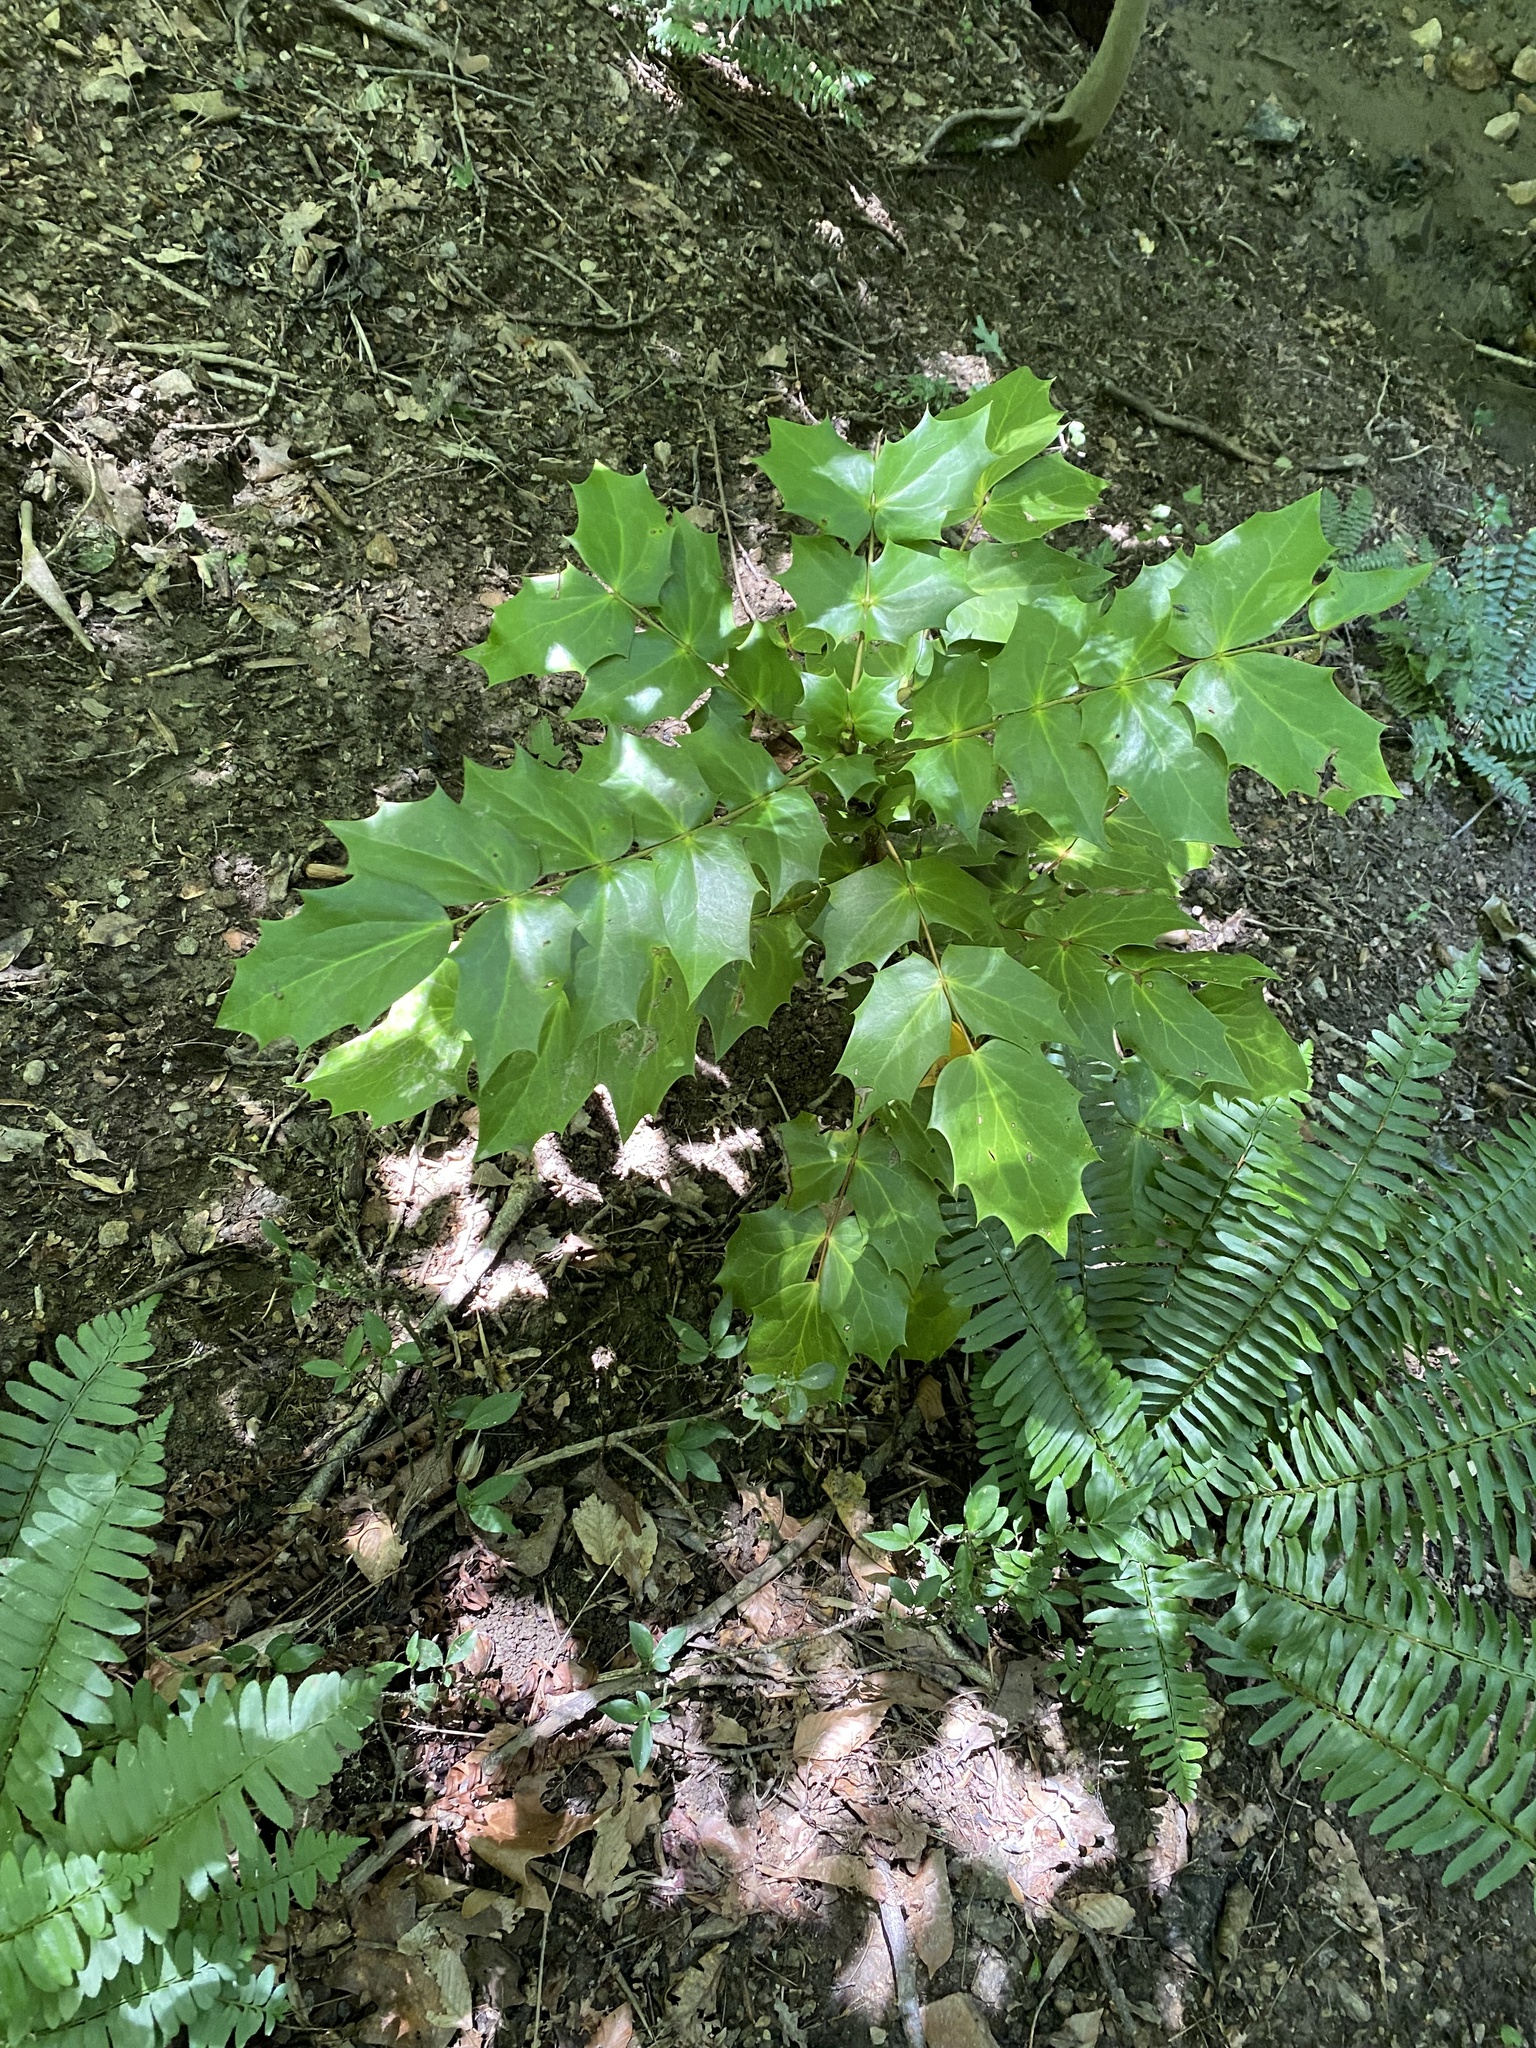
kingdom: Plantae
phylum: Tracheophyta
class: Magnoliopsida
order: Ranunculales
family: Berberidaceae
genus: Mahonia
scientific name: Mahonia bealei
